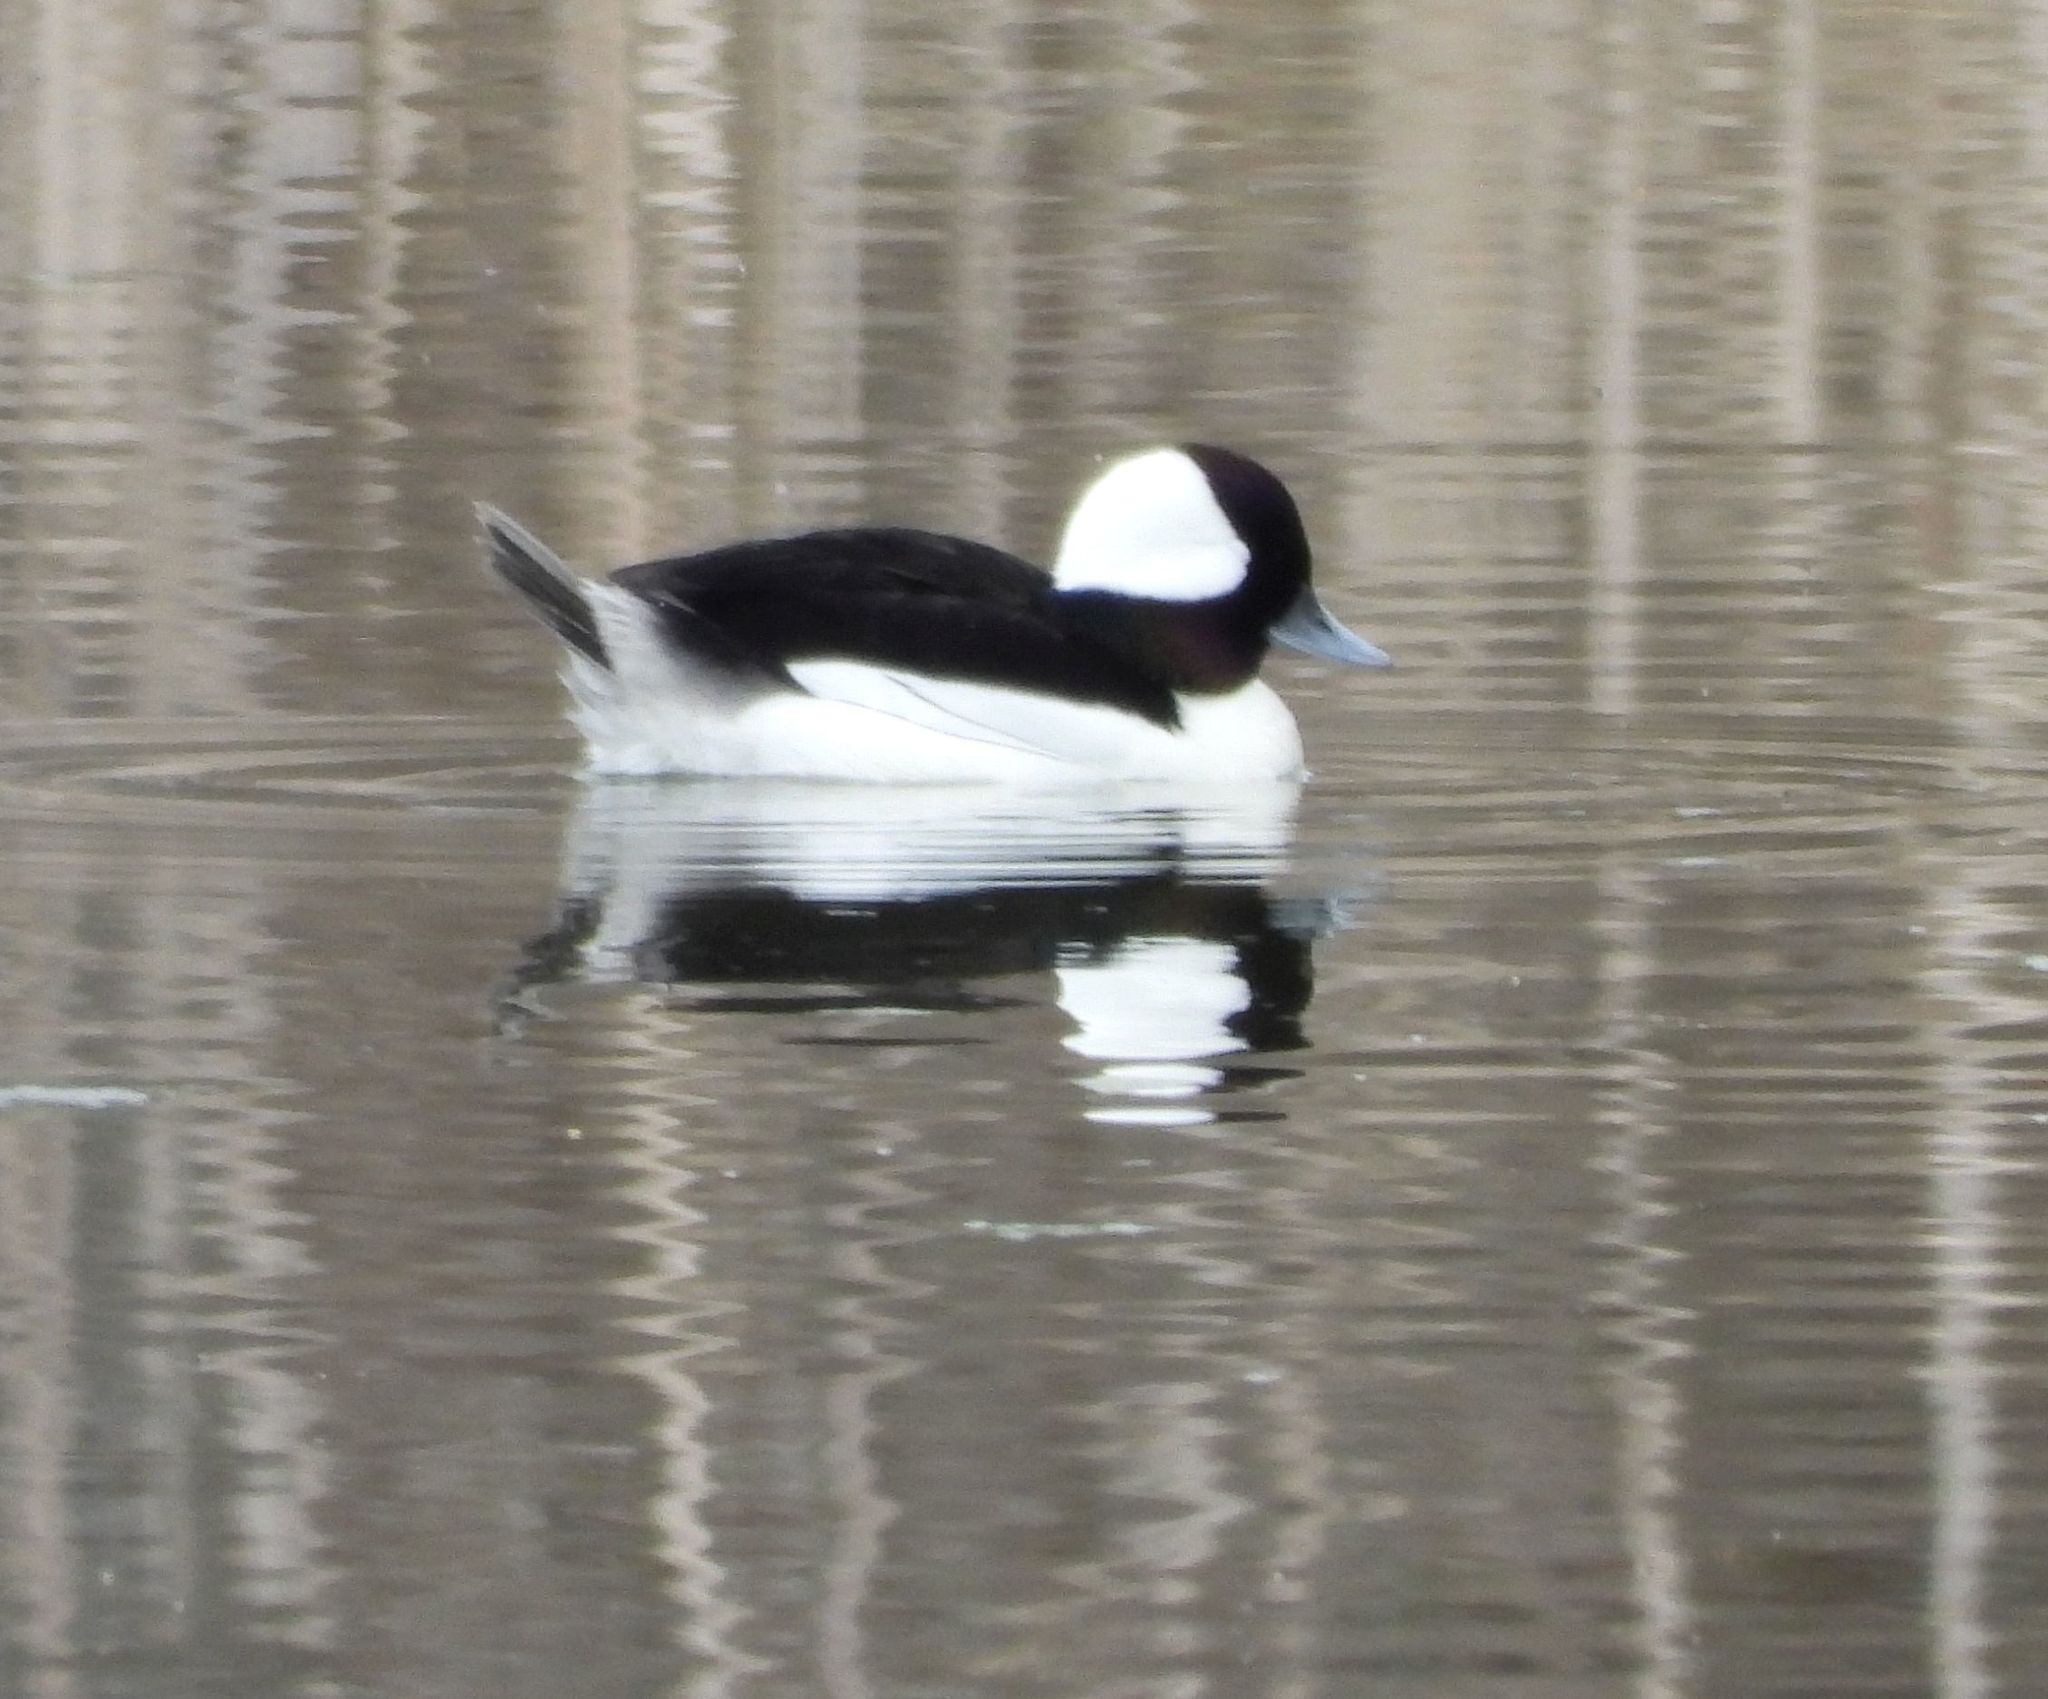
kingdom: Animalia
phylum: Chordata
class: Aves
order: Anseriformes
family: Anatidae
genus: Bucephala
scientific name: Bucephala albeola
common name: Bufflehead
